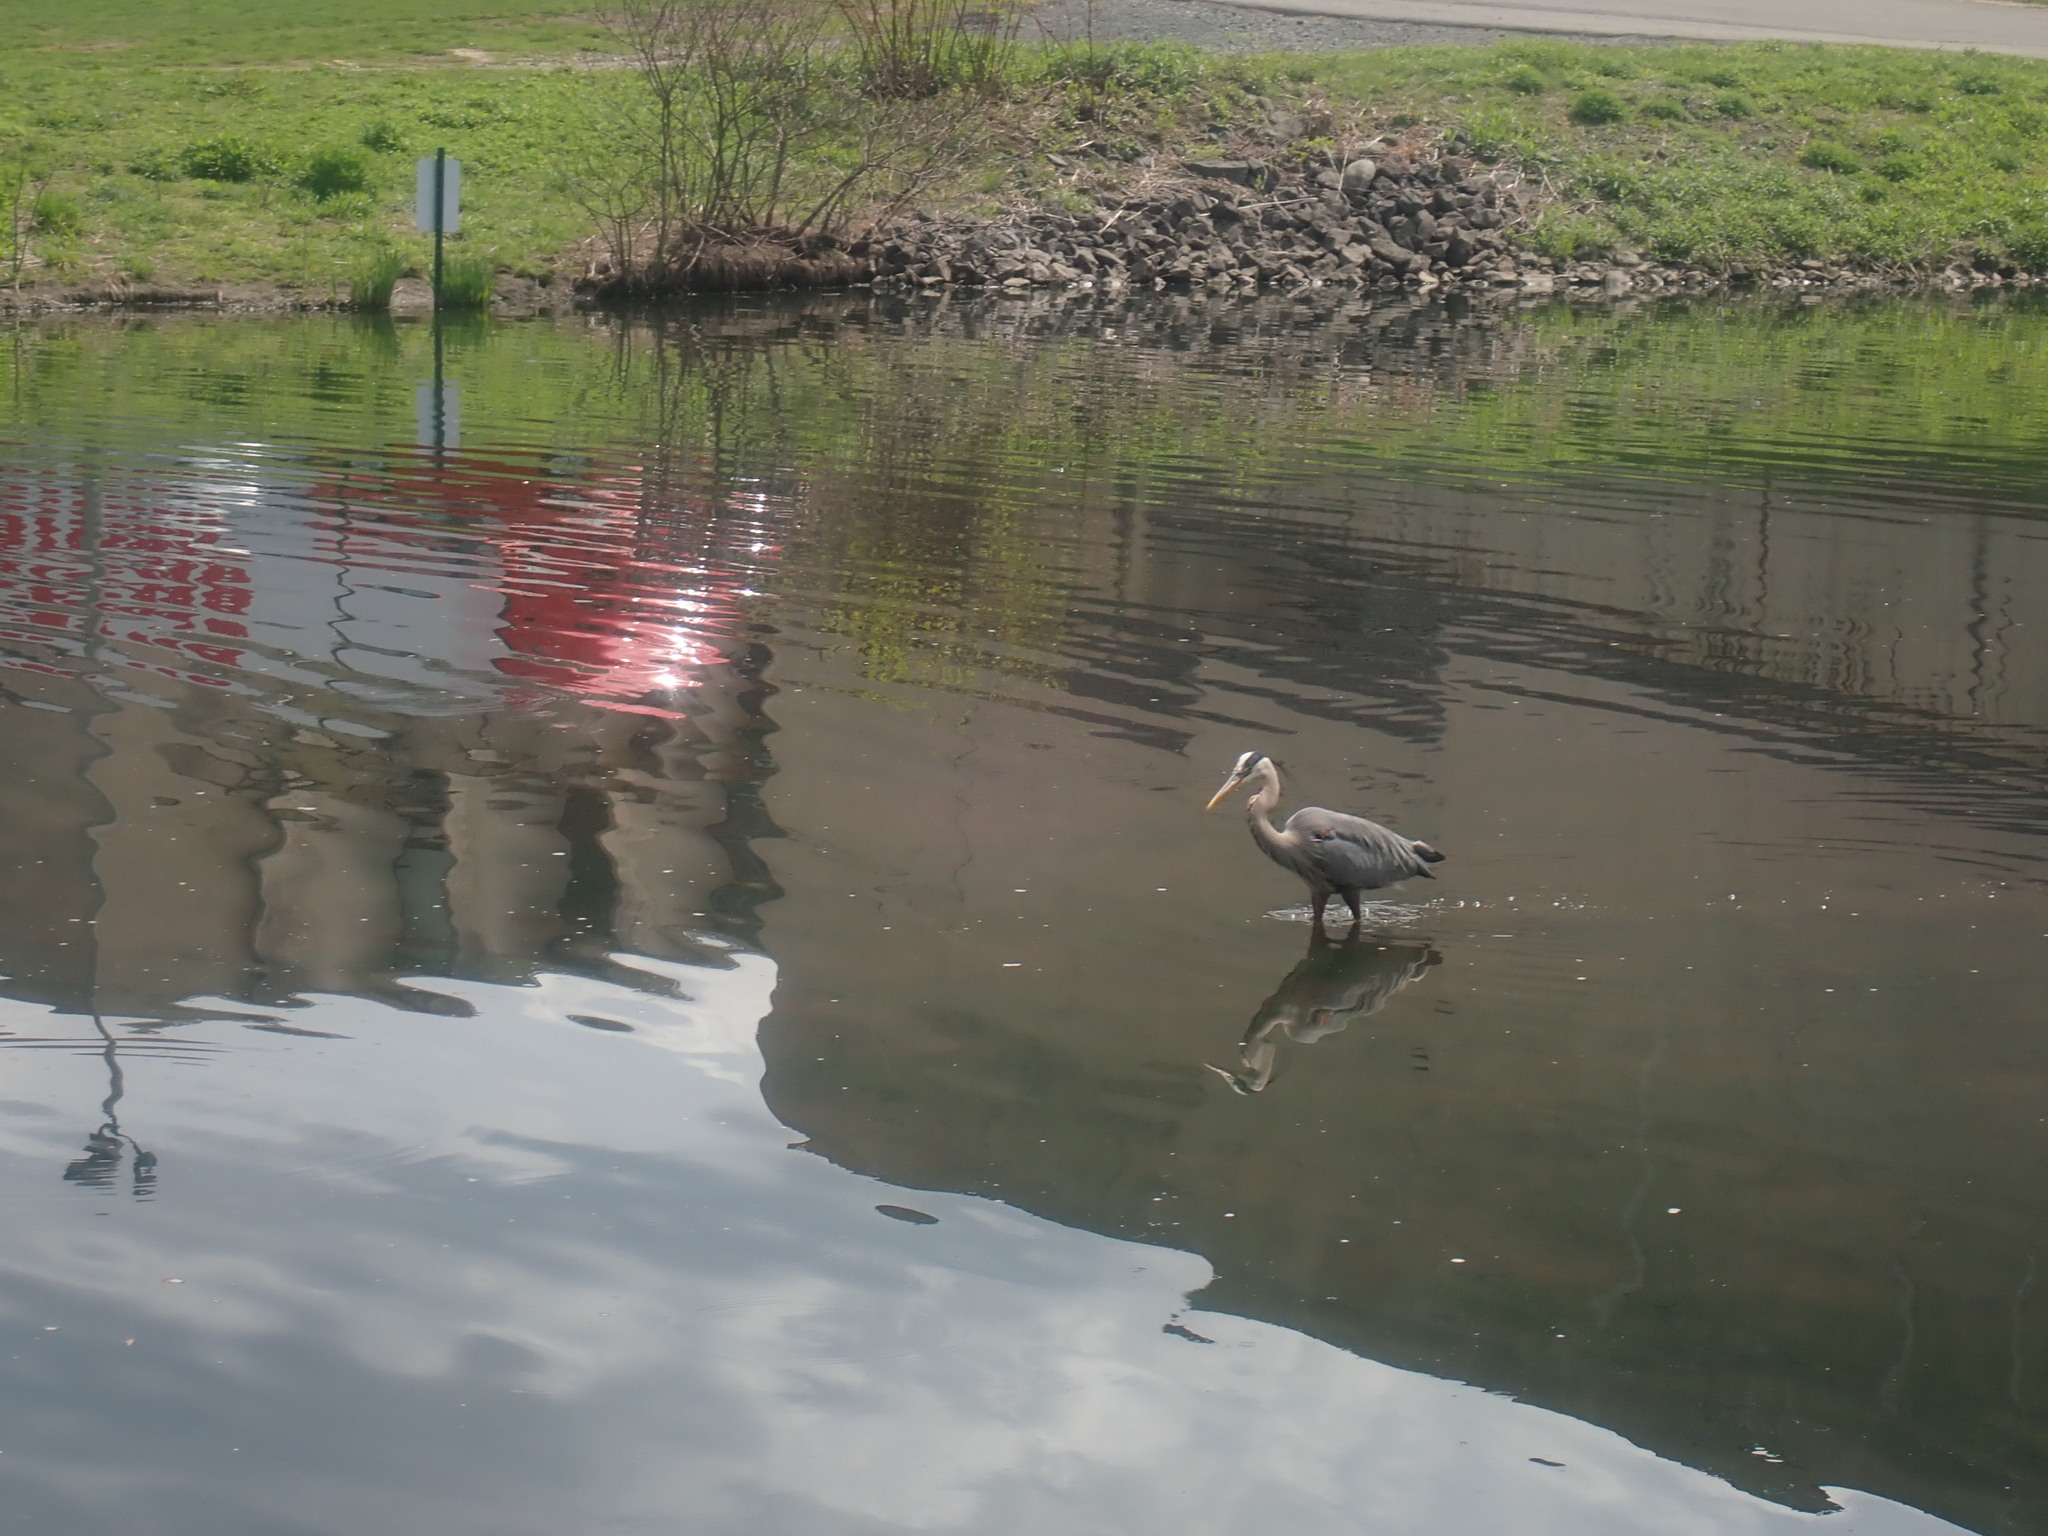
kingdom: Animalia
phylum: Chordata
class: Aves
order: Pelecaniformes
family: Ardeidae
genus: Ardea
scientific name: Ardea herodias
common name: Great blue heron
